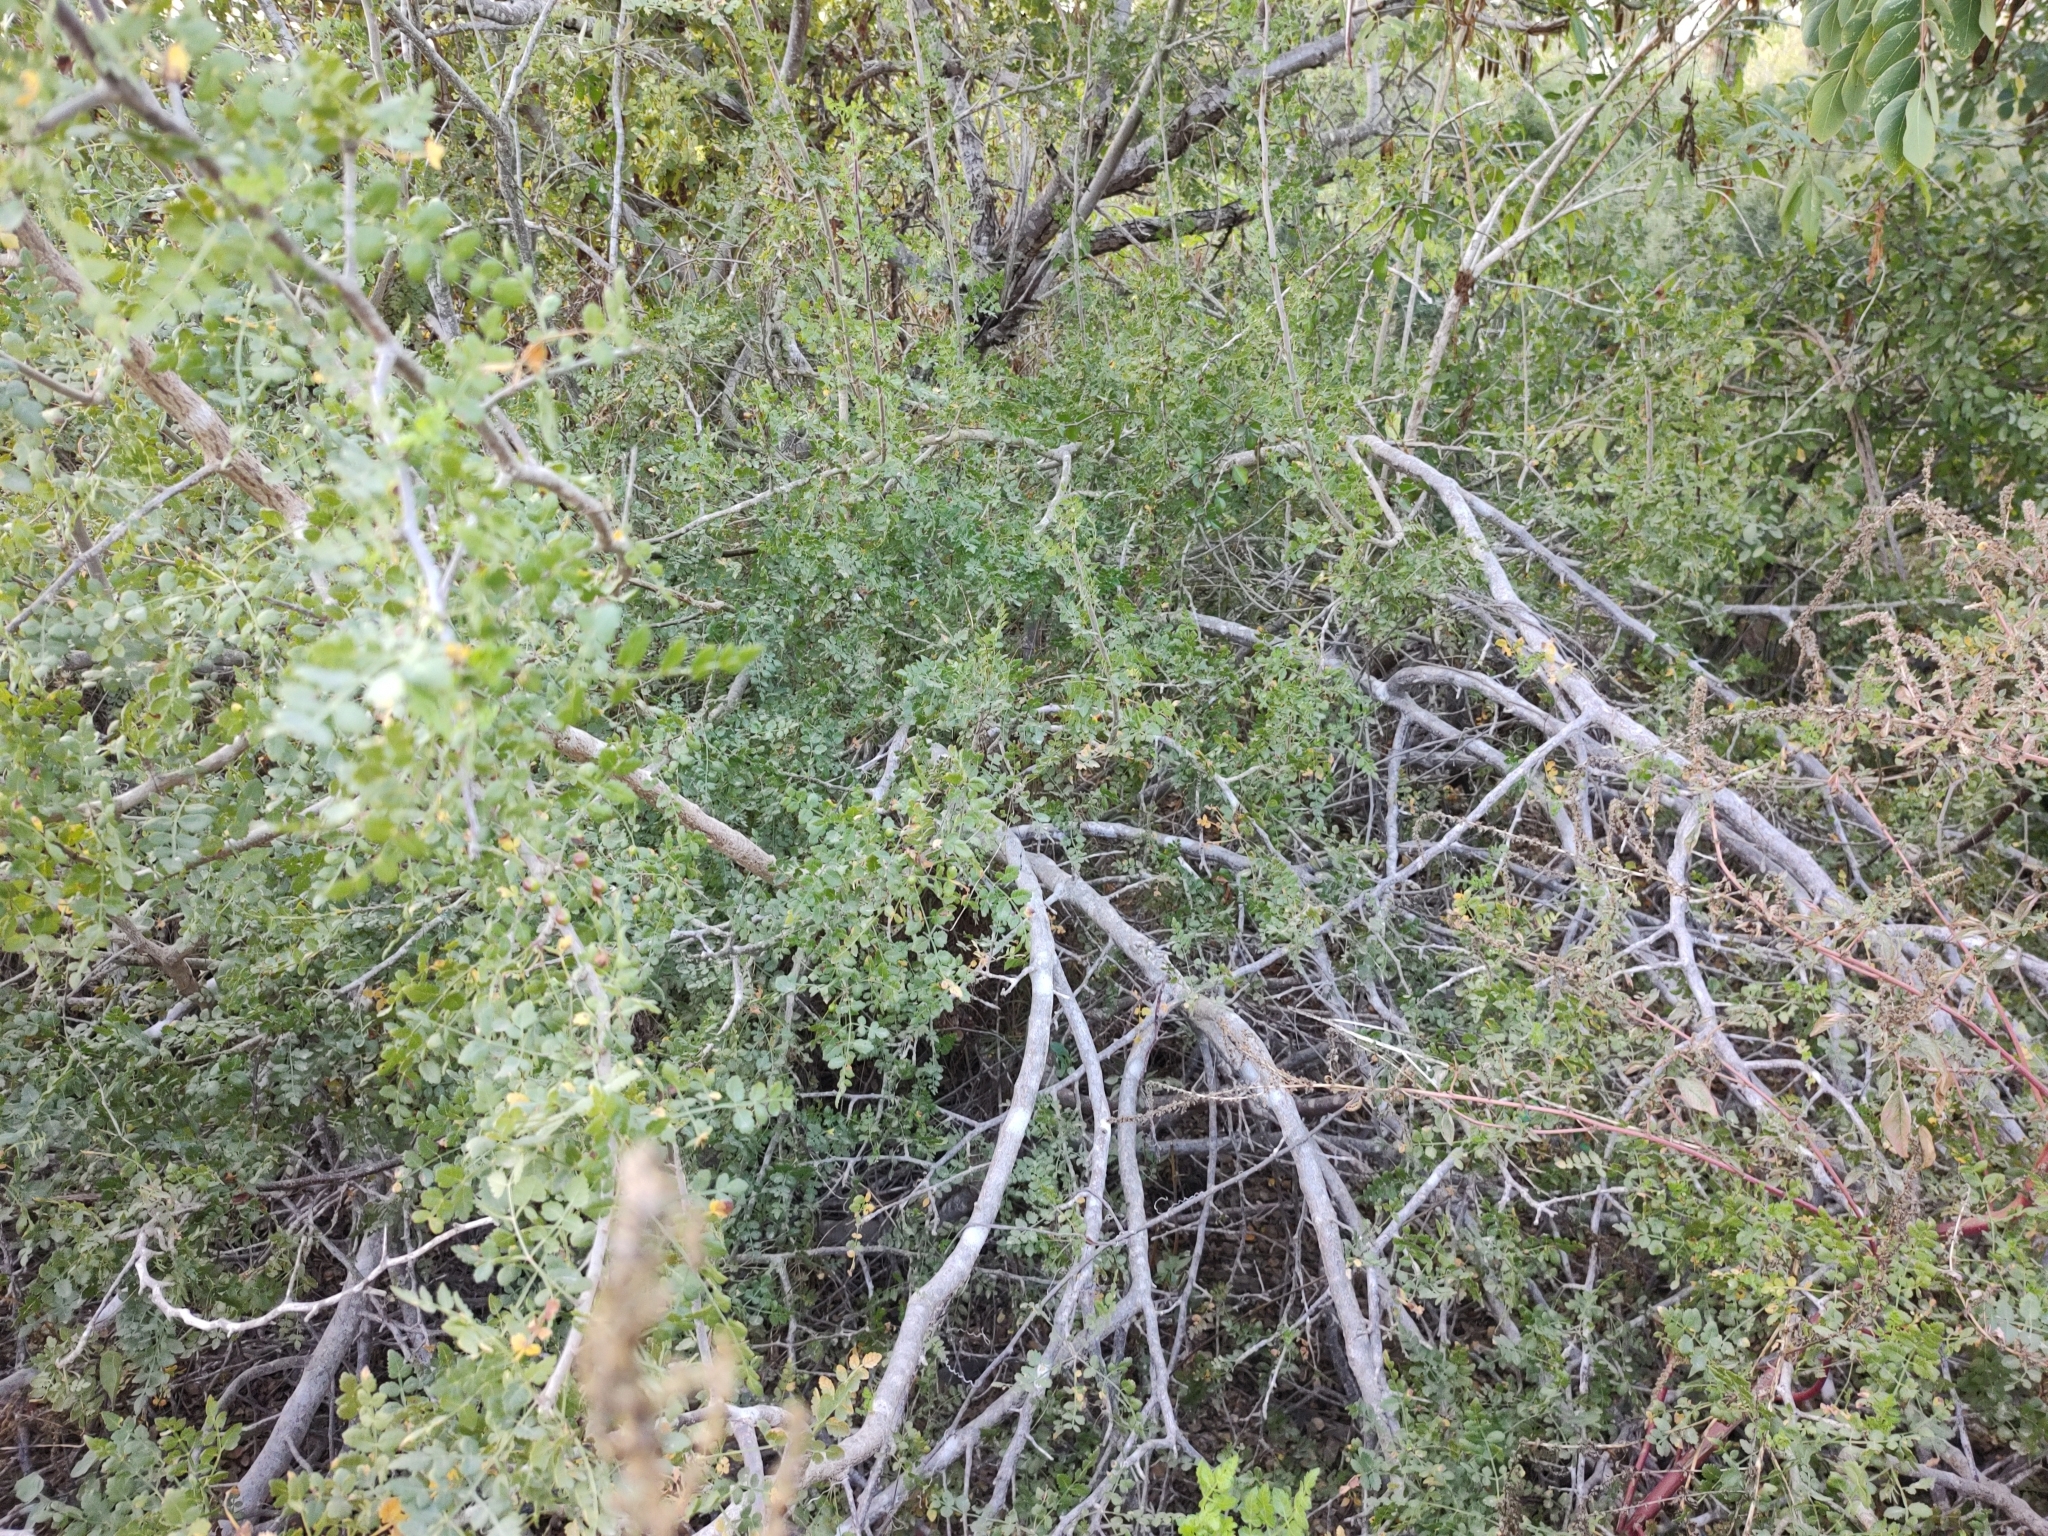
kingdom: Plantae
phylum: Tracheophyta
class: Magnoliopsida
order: Sapindales
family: Burseraceae
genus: Bursera
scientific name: Bursera littoralis
